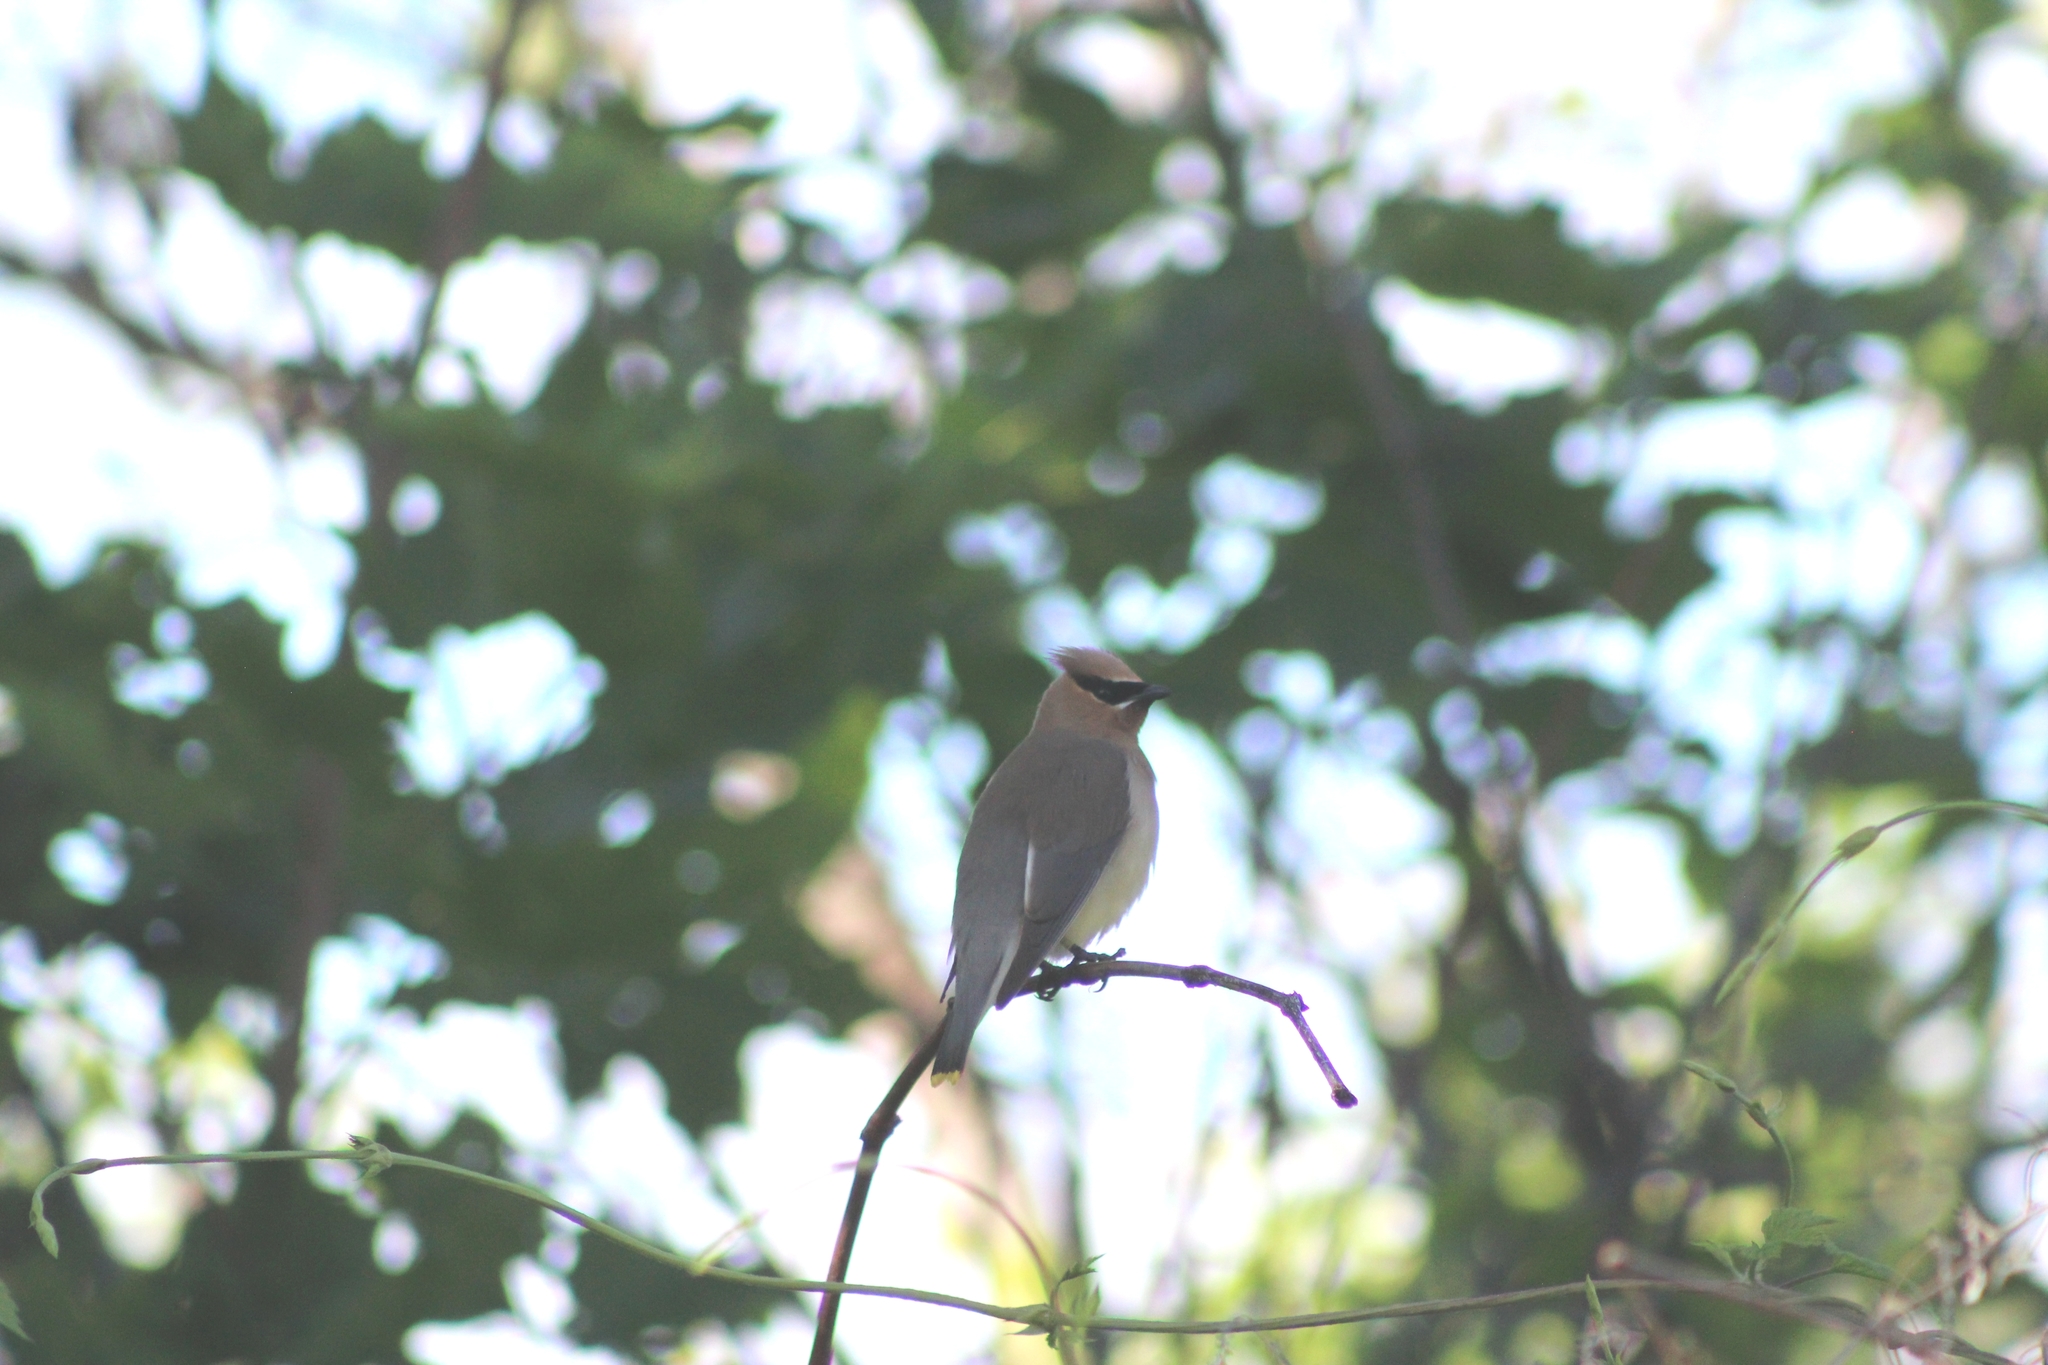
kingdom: Animalia
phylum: Chordata
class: Aves
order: Passeriformes
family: Bombycillidae
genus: Bombycilla
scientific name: Bombycilla cedrorum
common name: Cedar waxwing
